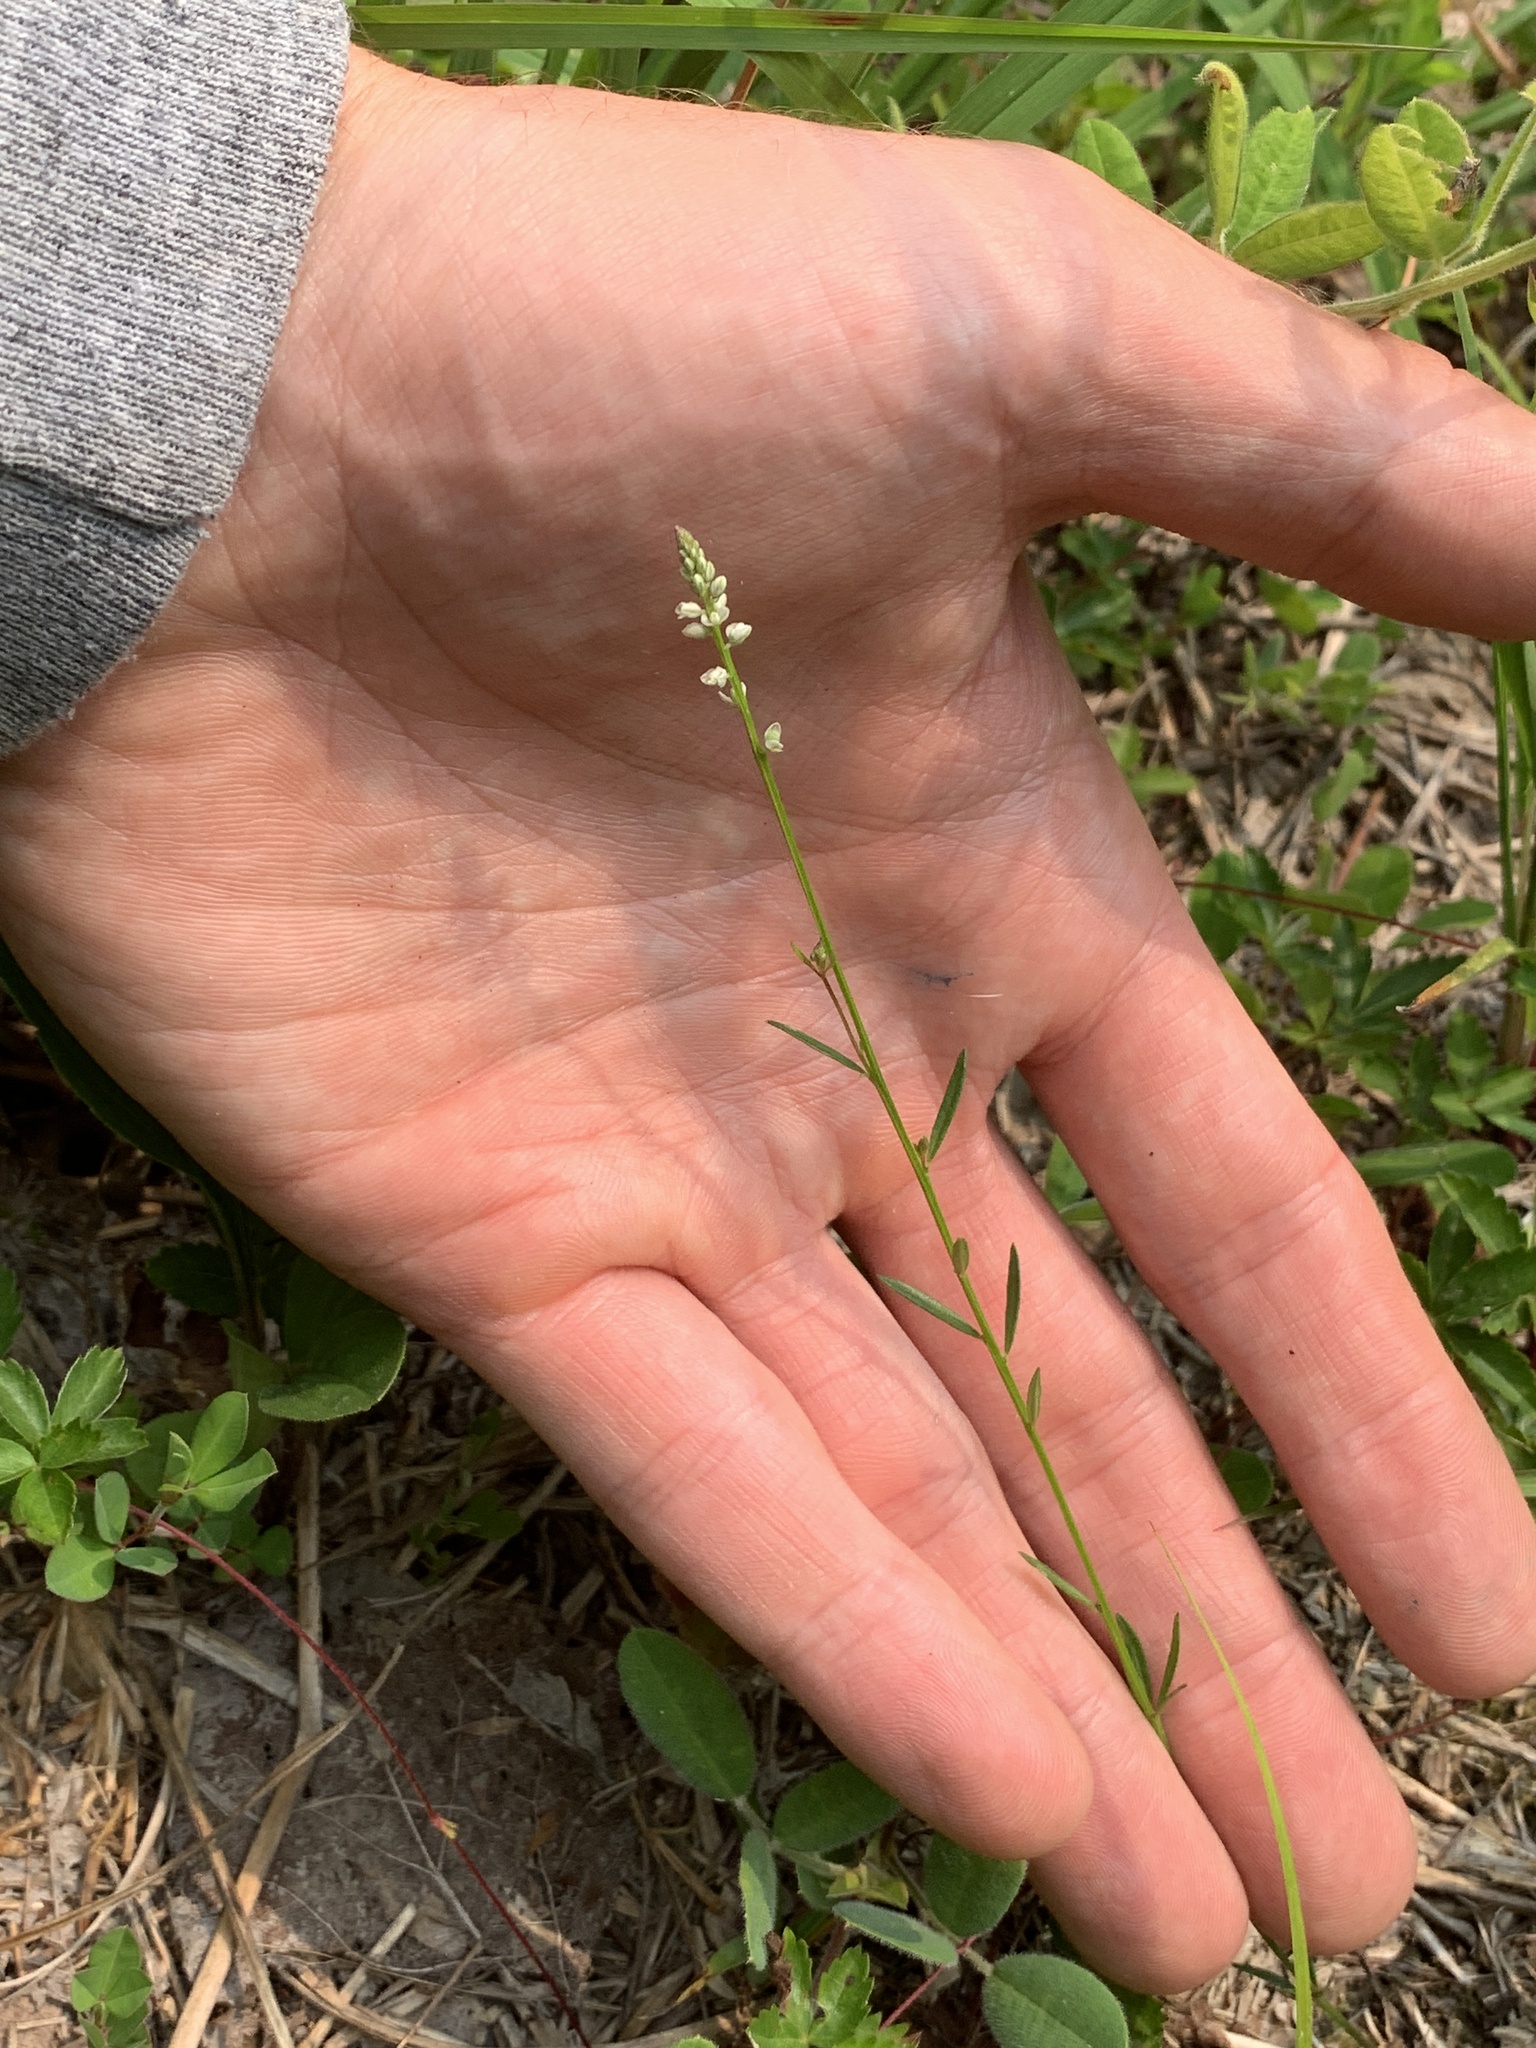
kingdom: Plantae
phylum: Tracheophyta
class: Magnoliopsida
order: Fabales
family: Polygalaceae
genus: Polygala
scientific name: Polygala ambigua
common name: Alternate milkwort
